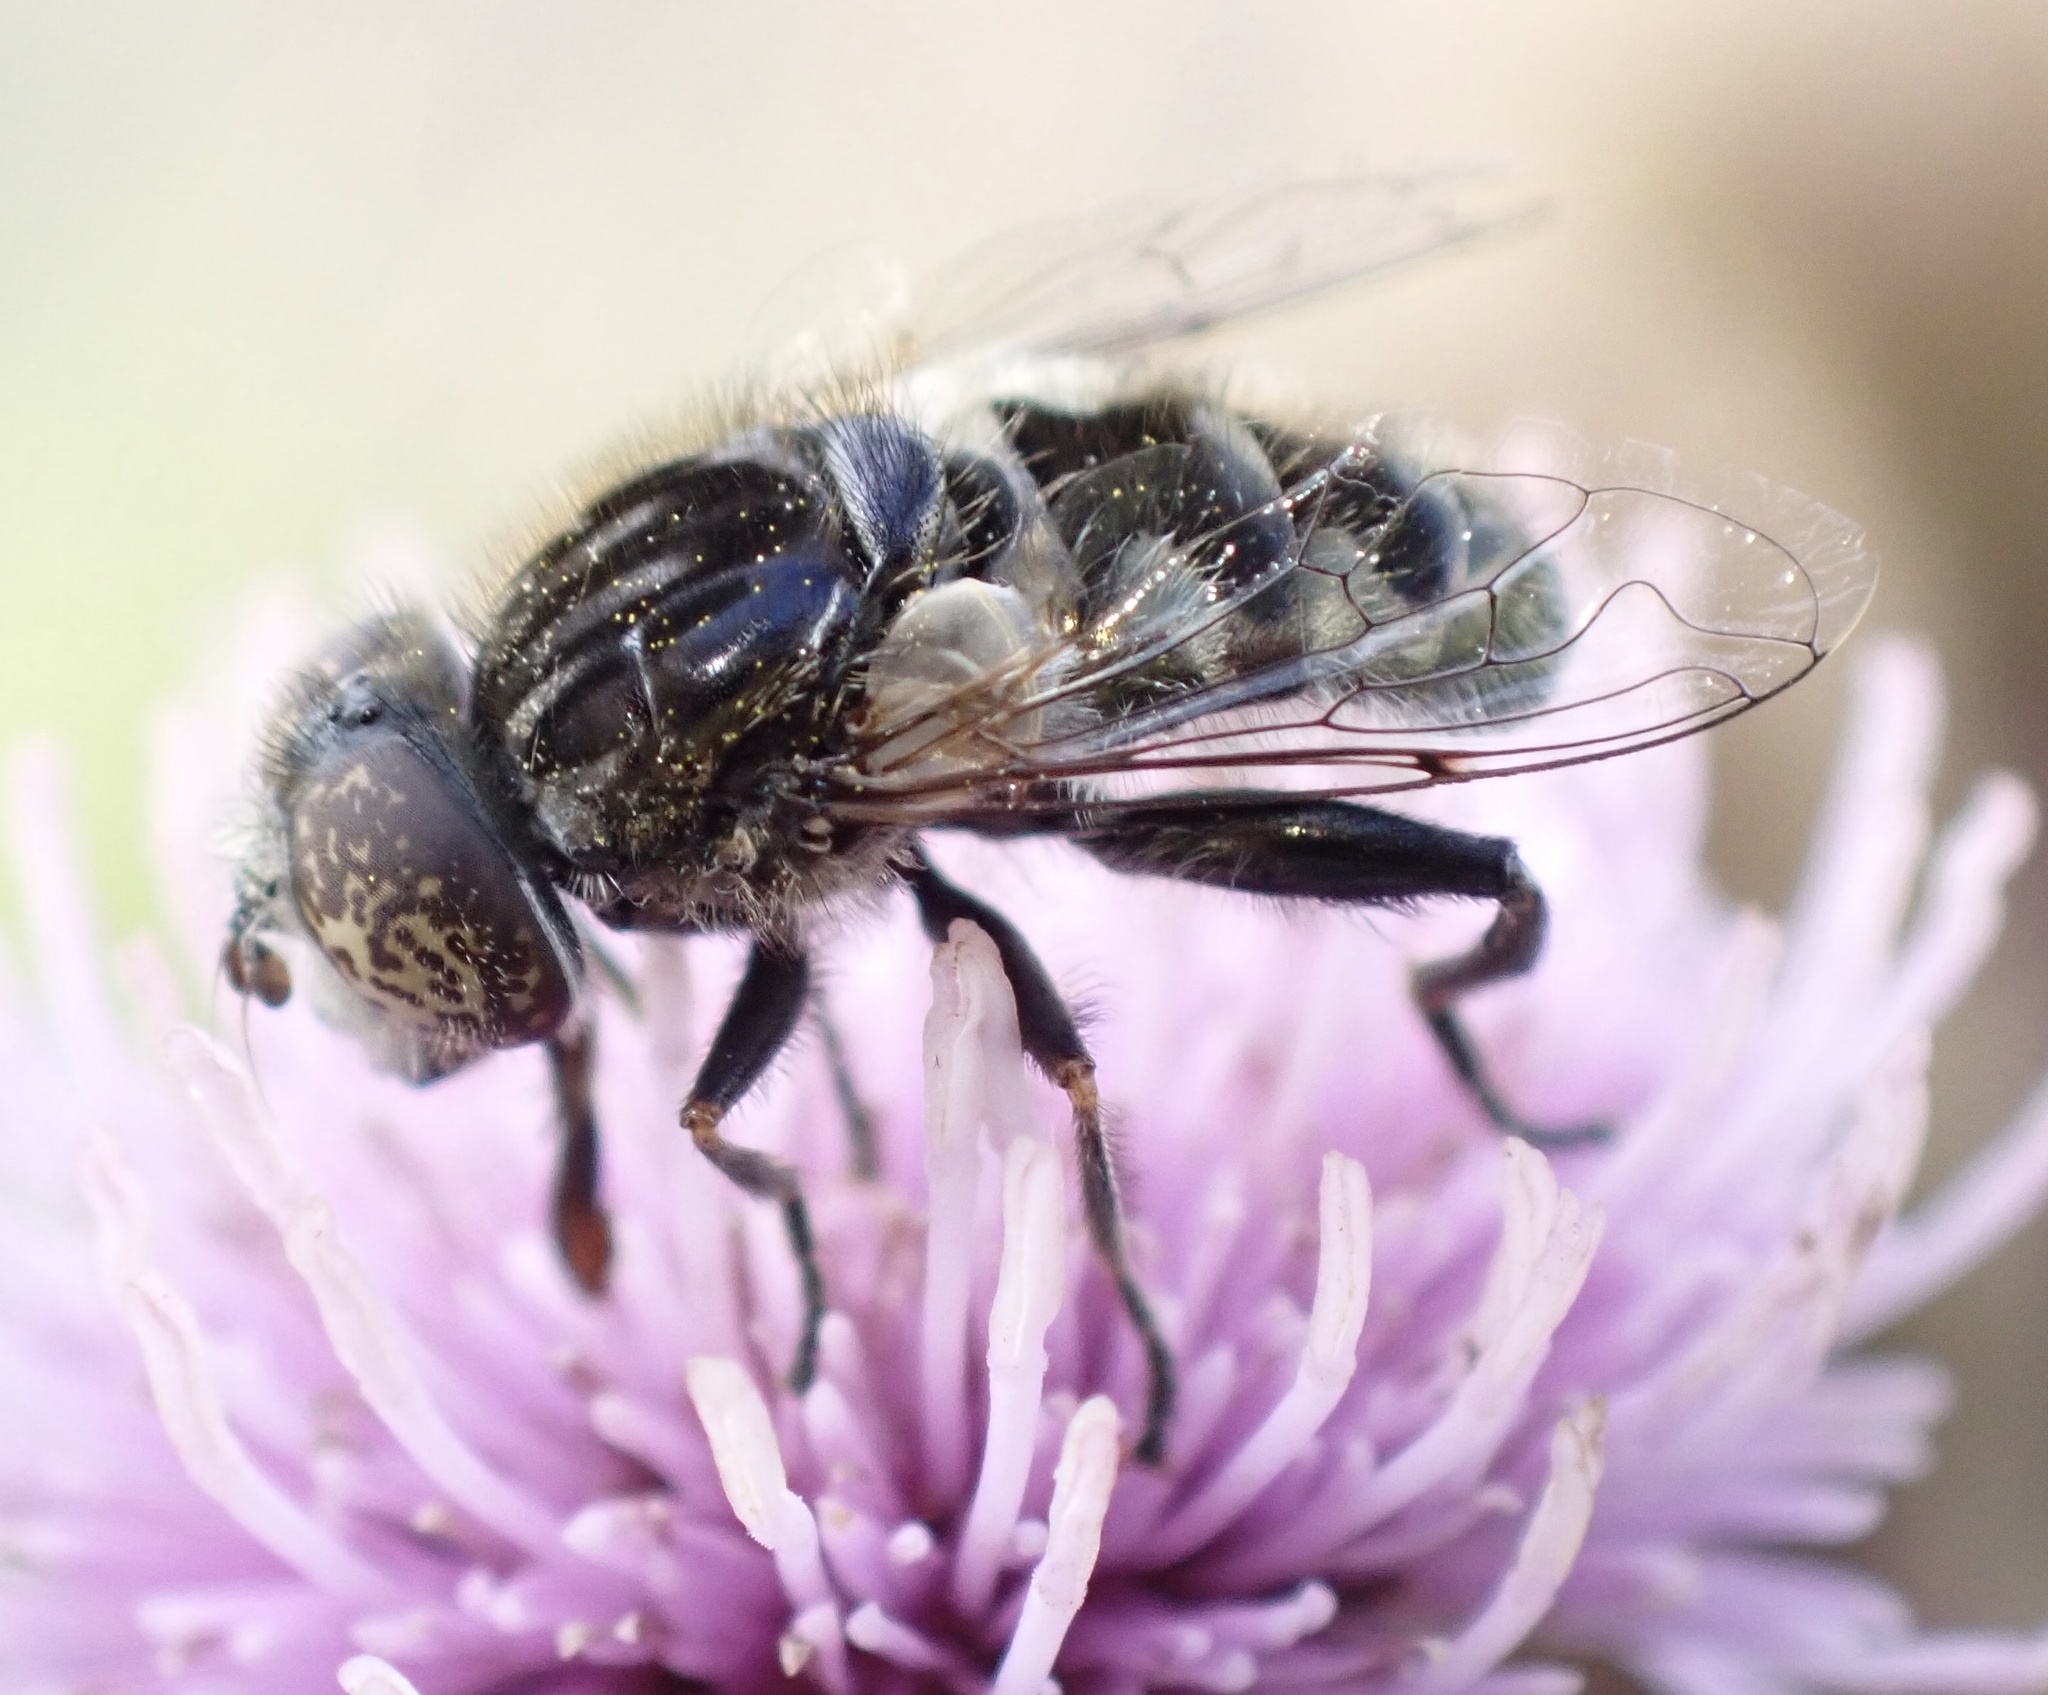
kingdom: Animalia
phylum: Arthropoda
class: Insecta
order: Diptera
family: Syrphidae
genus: Eristalinus
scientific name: Eristalinus sepulchralis
